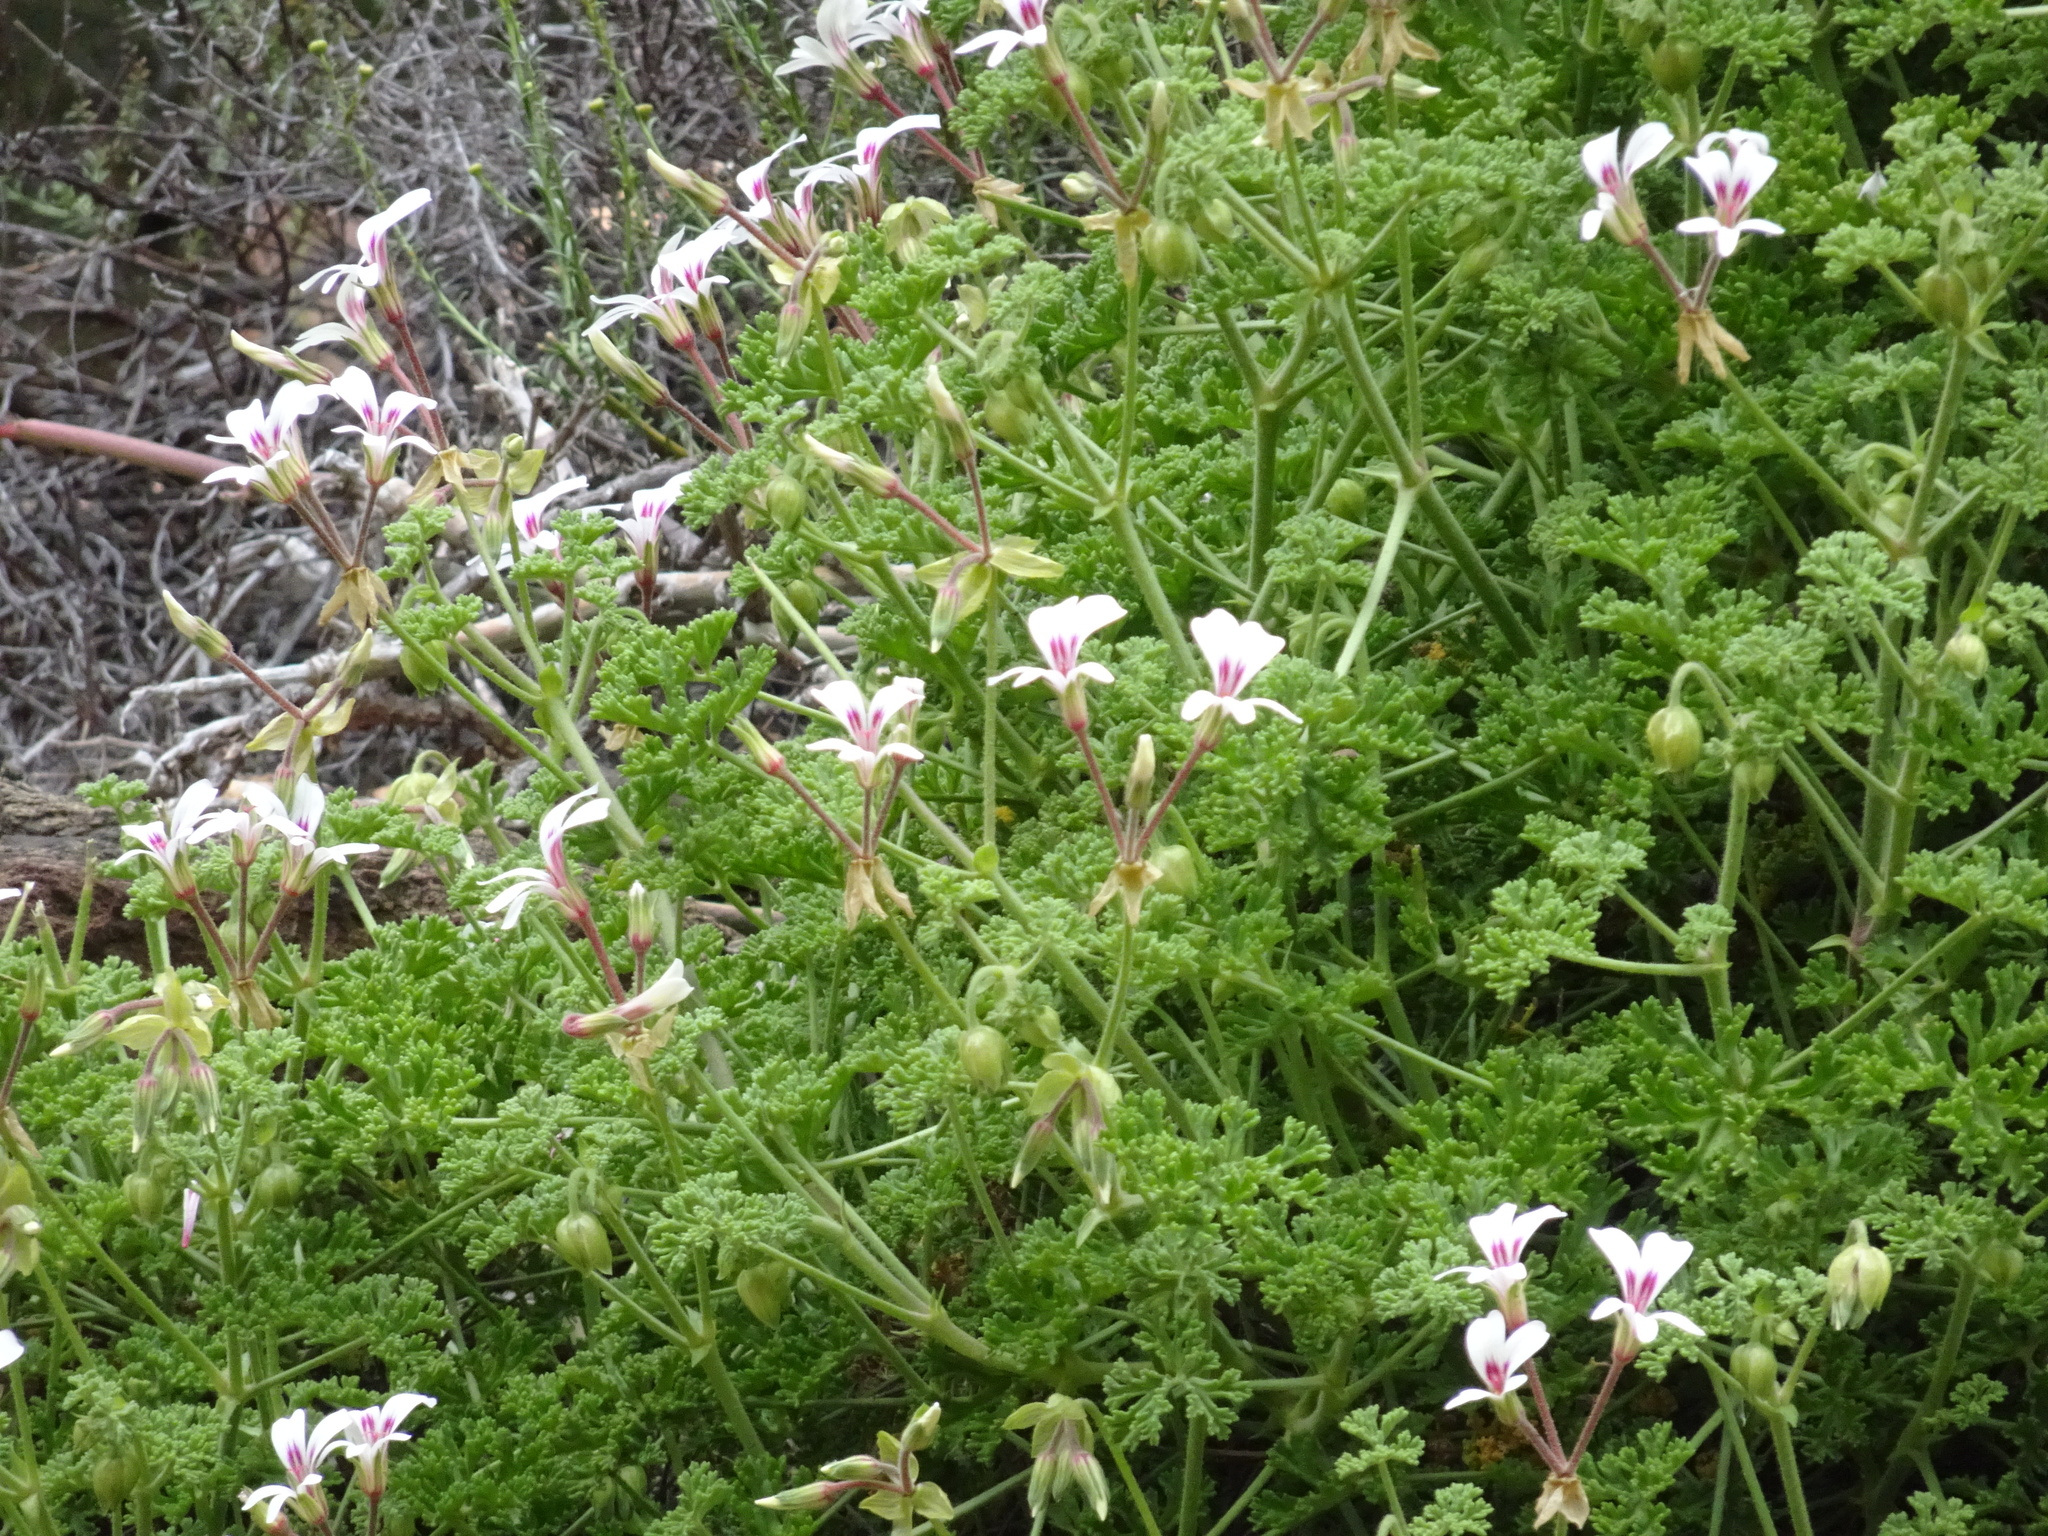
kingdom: Plantae
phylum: Tracheophyta
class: Magnoliopsida
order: Geraniales
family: Geraniaceae
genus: Pelargonium
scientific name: Pelargonium trifidum
